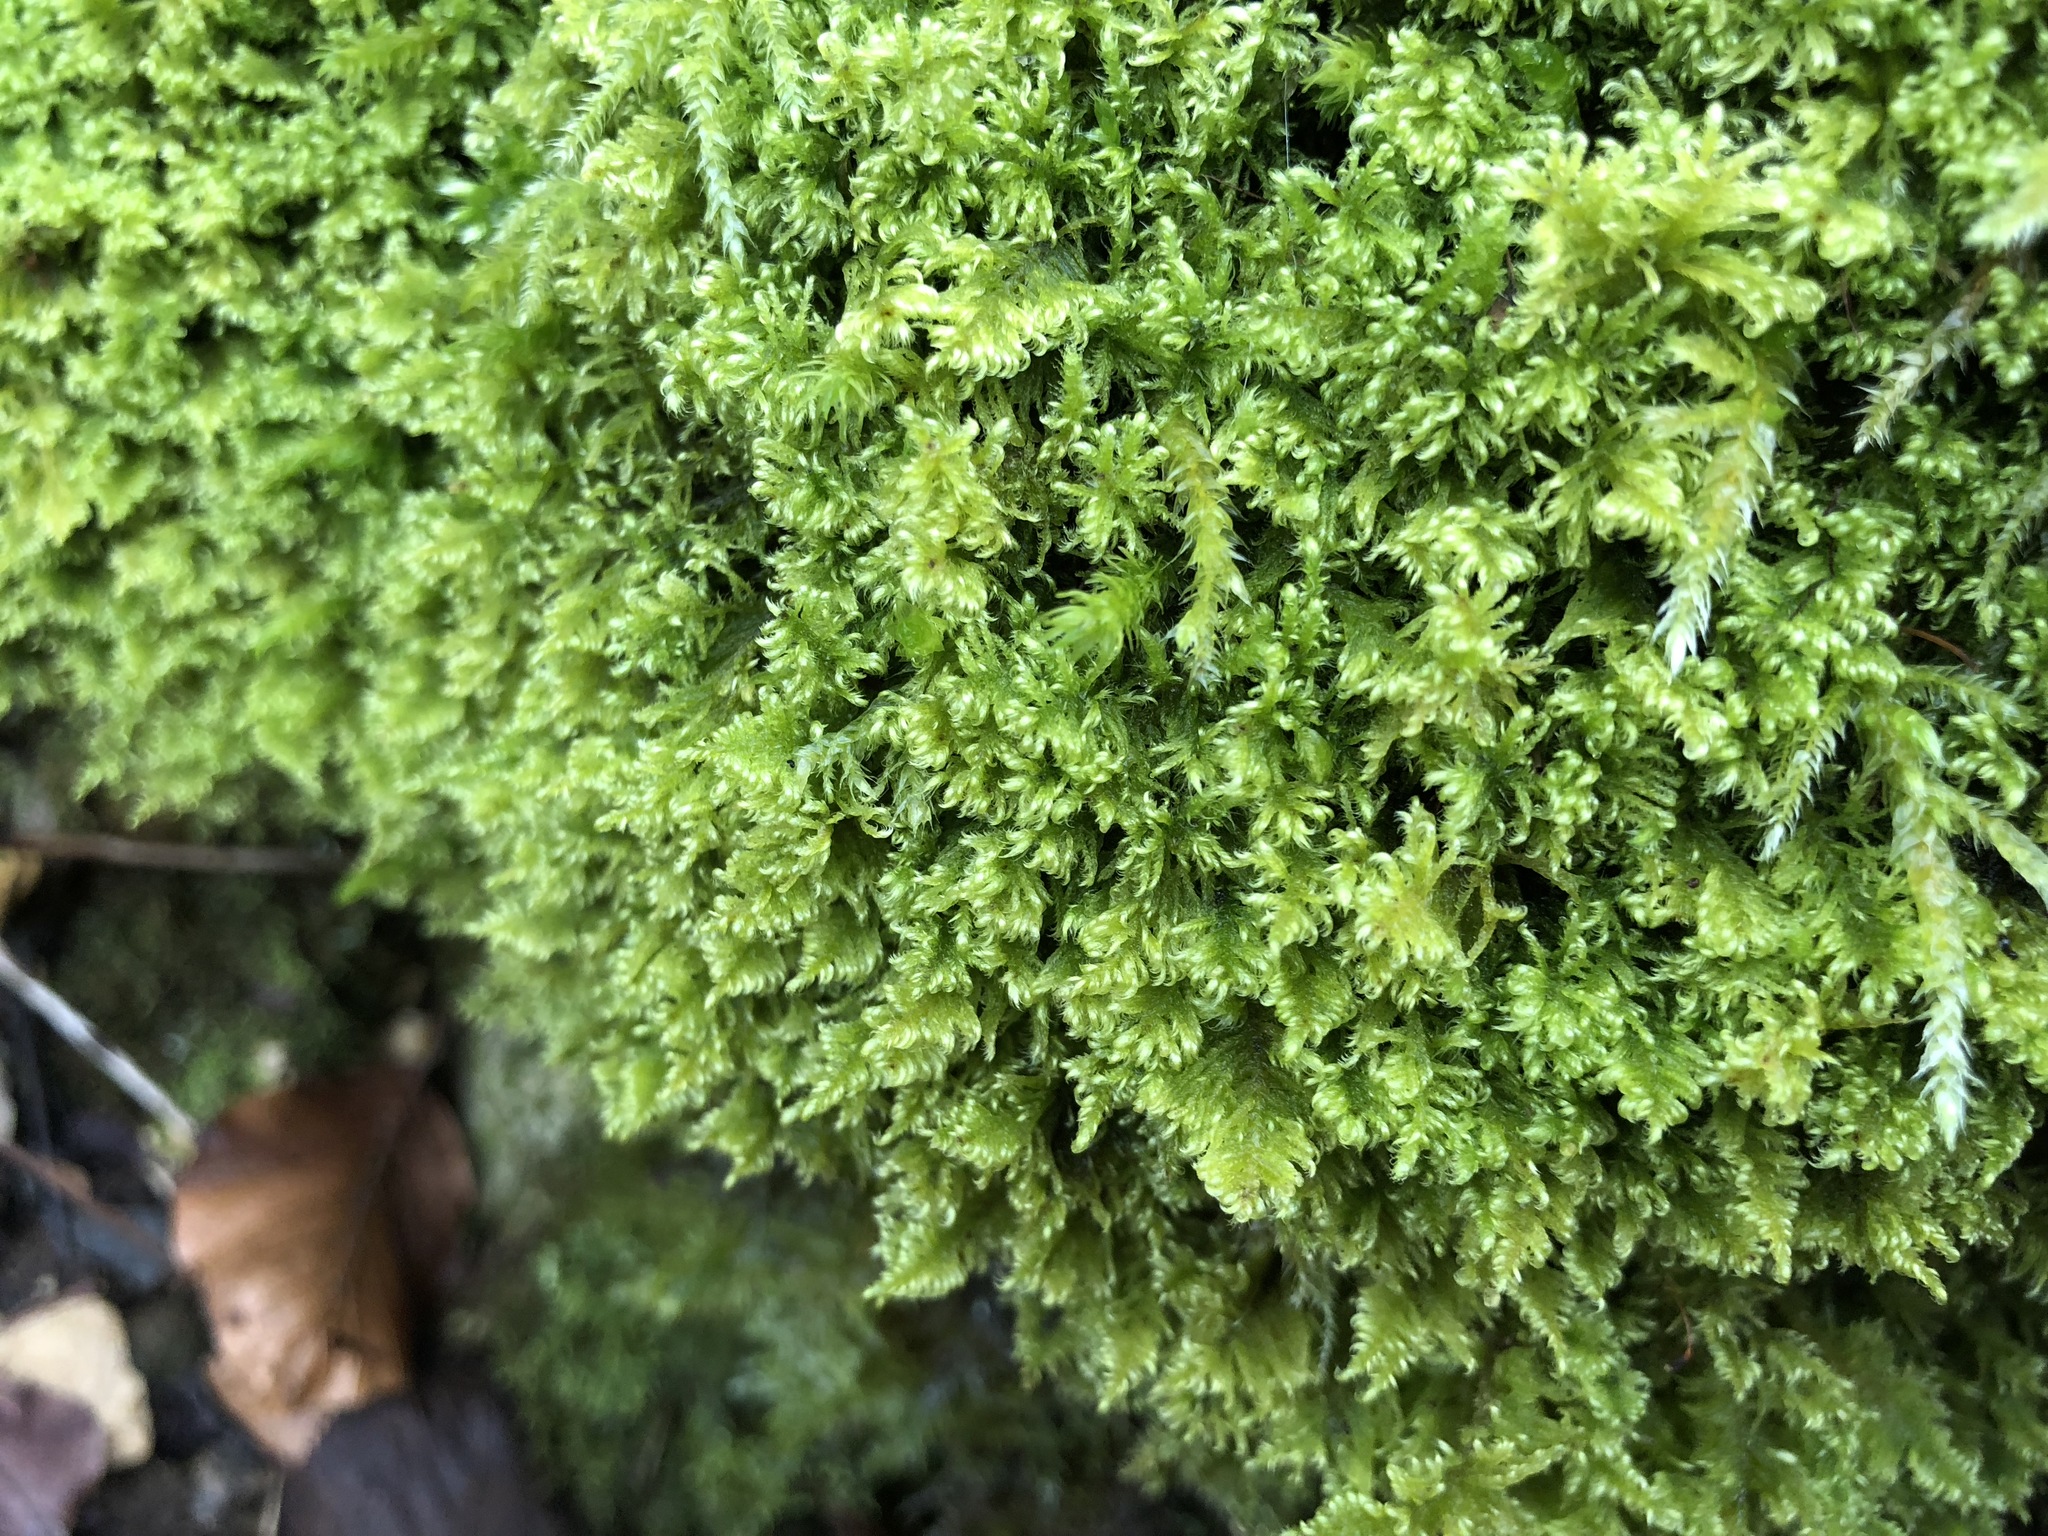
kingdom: Plantae
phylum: Bryophyta
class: Bryopsida
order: Hypnales
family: Myuriaceae
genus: Ctenidium
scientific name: Ctenidium molluscum
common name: Chalk comb-moss
